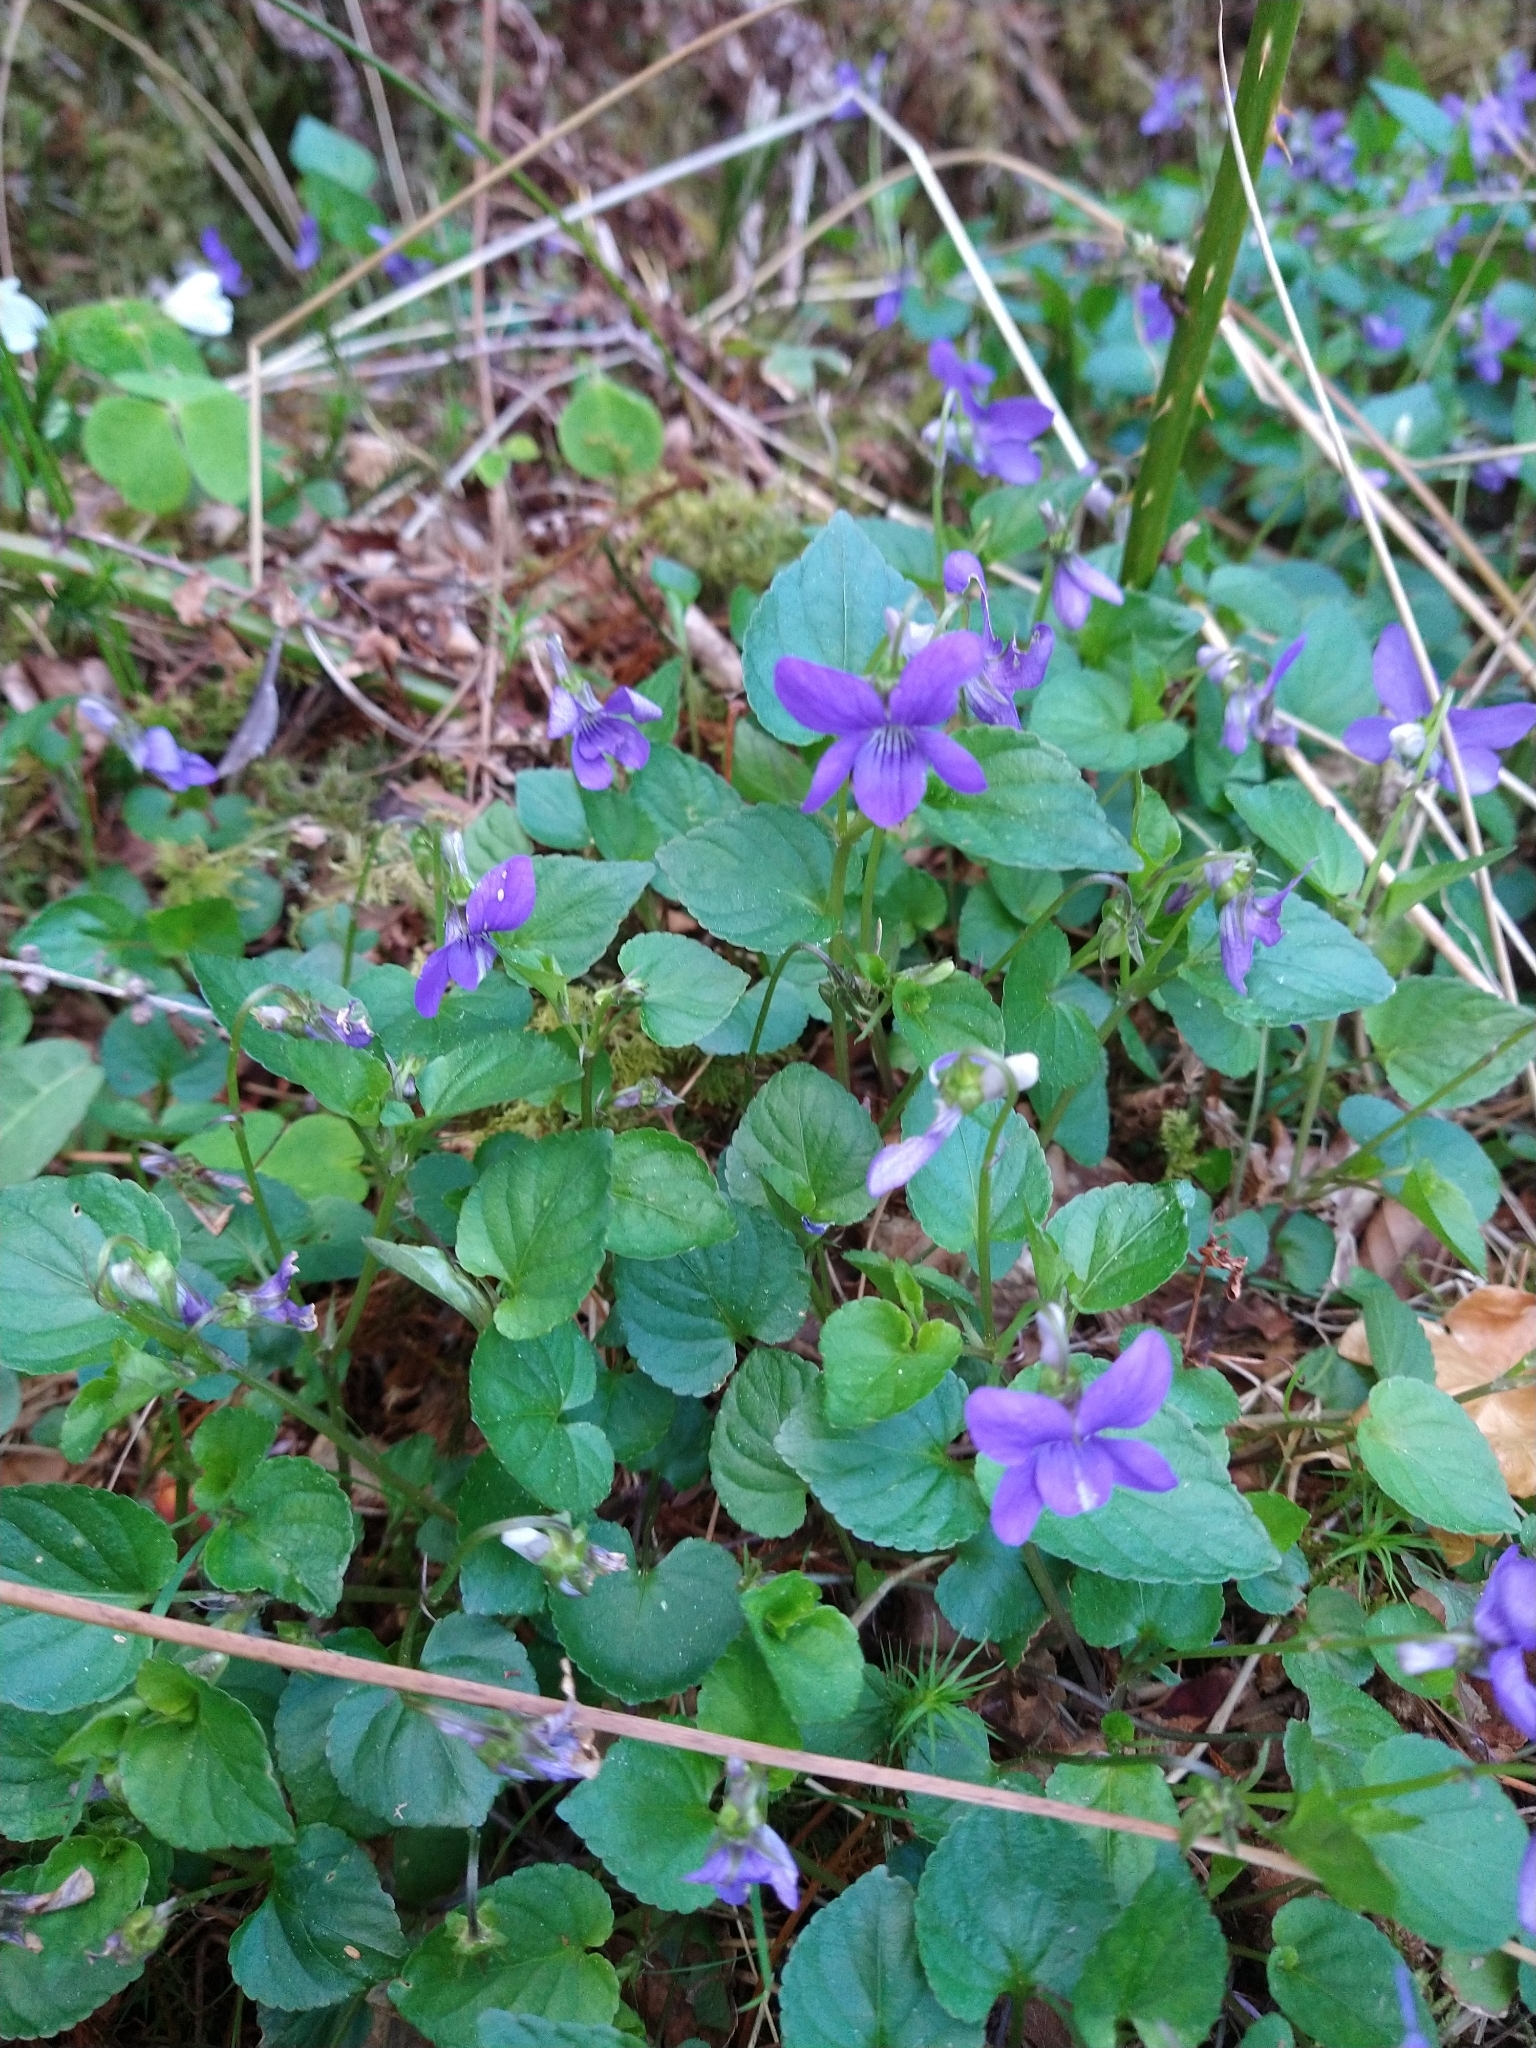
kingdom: Plantae
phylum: Tracheophyta
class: Magnoliopsida
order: Malpighiales
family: Violaceae
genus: Viola
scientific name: Viola riviniana
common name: Common dog-violet
